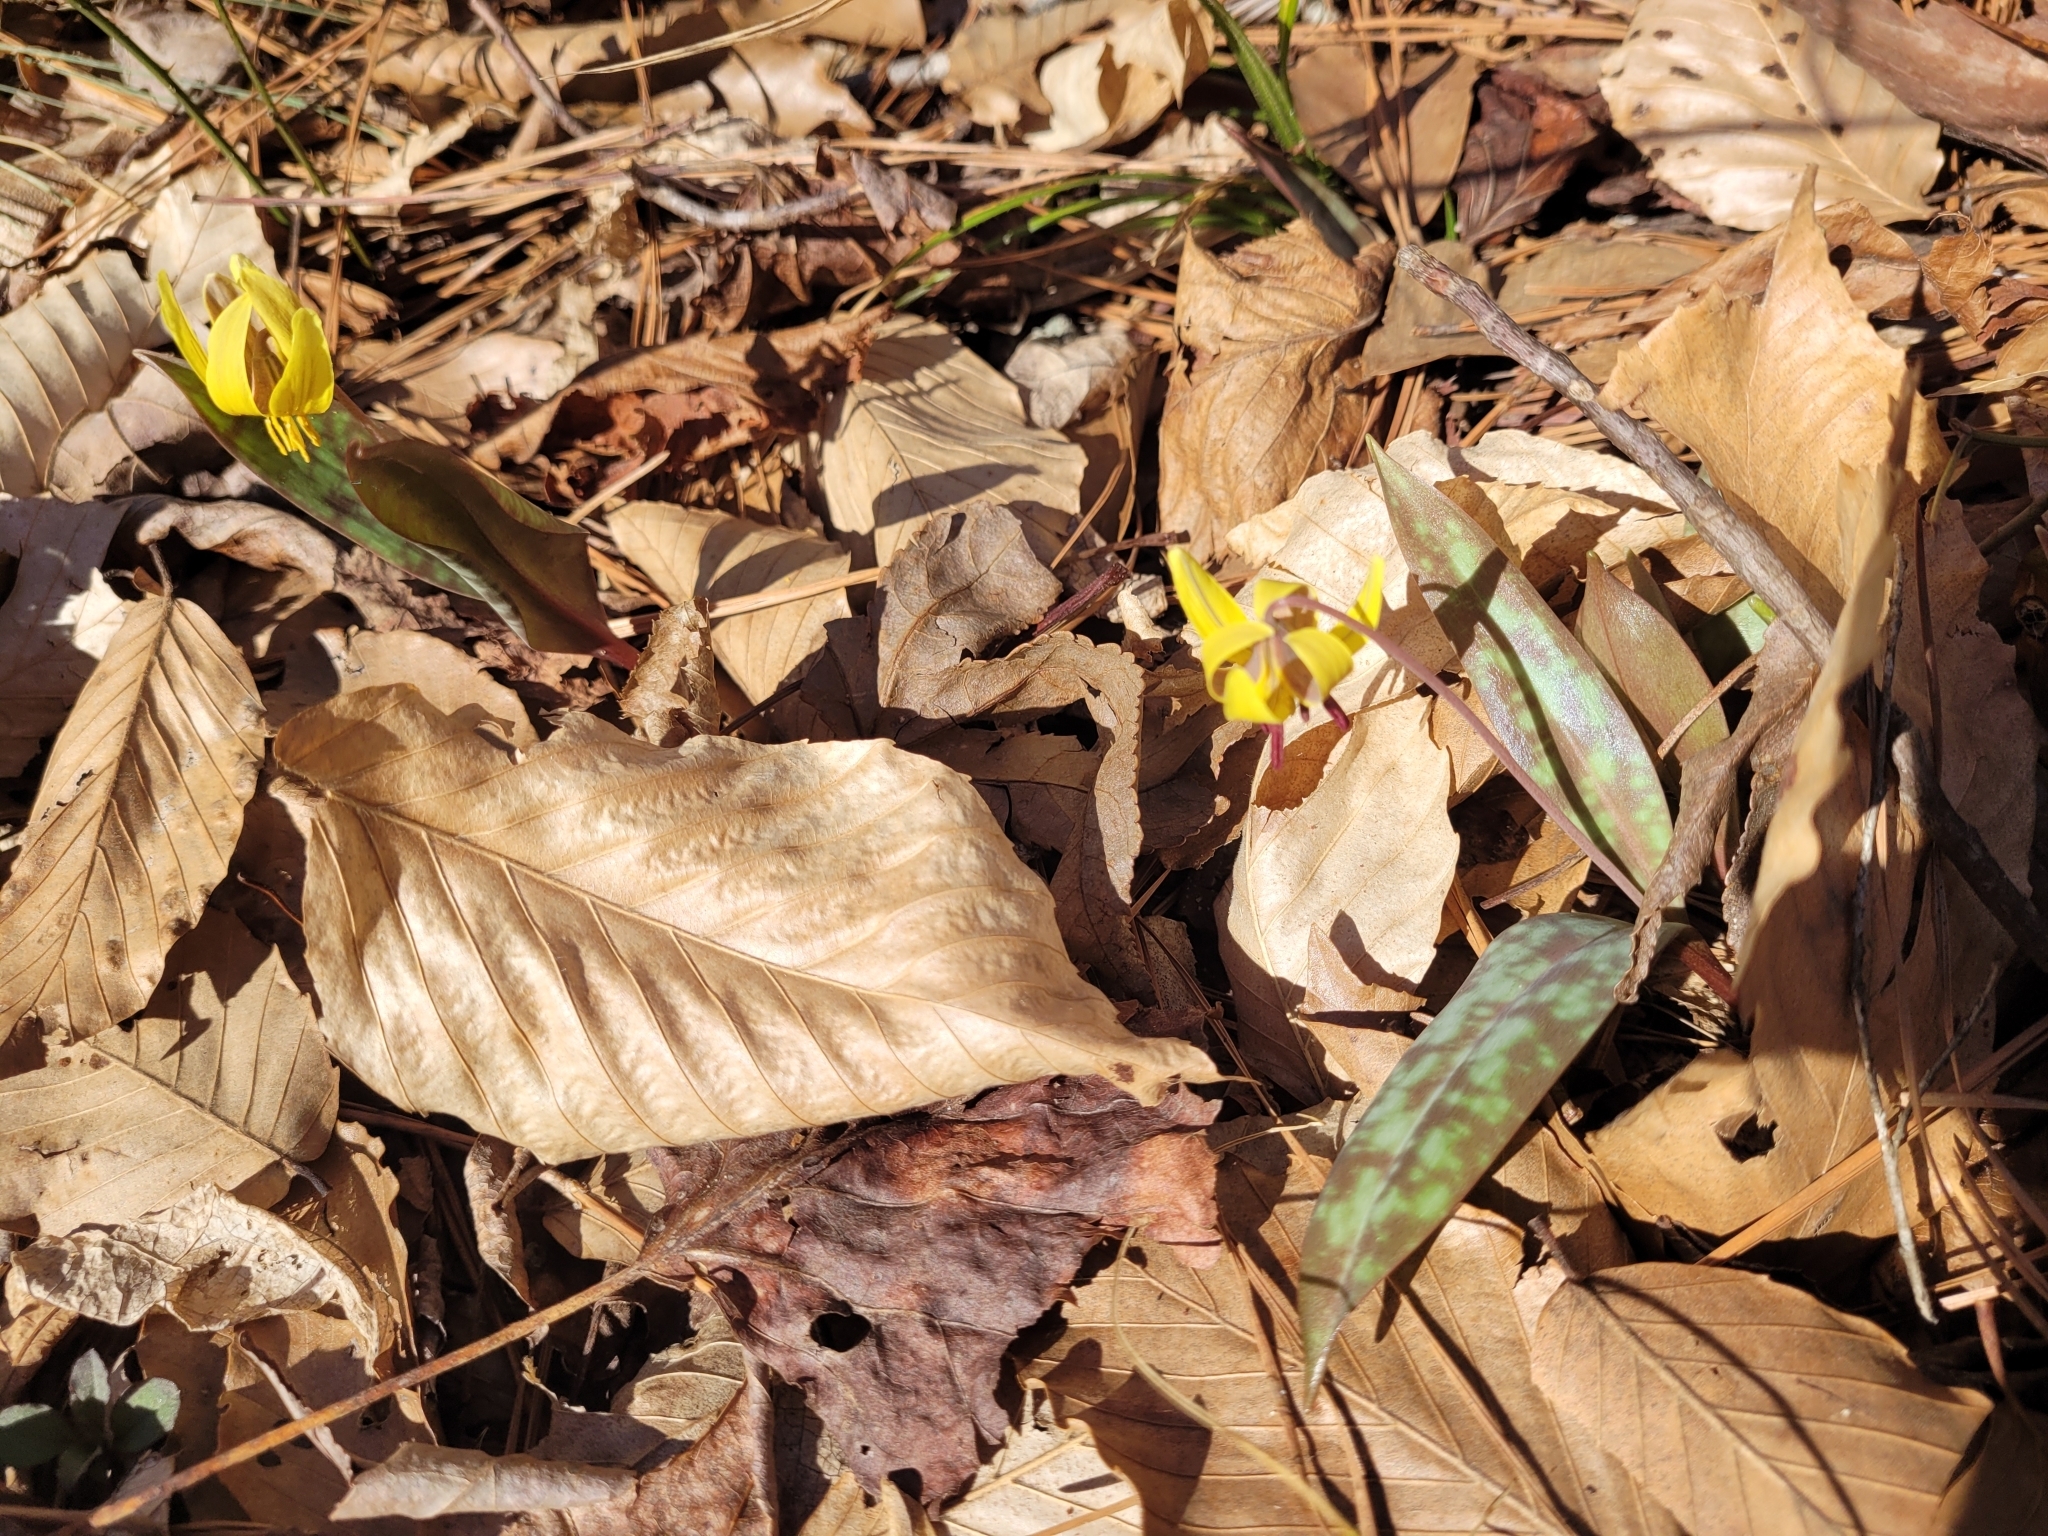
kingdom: Plantae
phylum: Tracheophyta
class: Liliopsida
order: Liliales
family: Liliaceae
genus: Erythronium
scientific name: Erythronium umbilicatum
